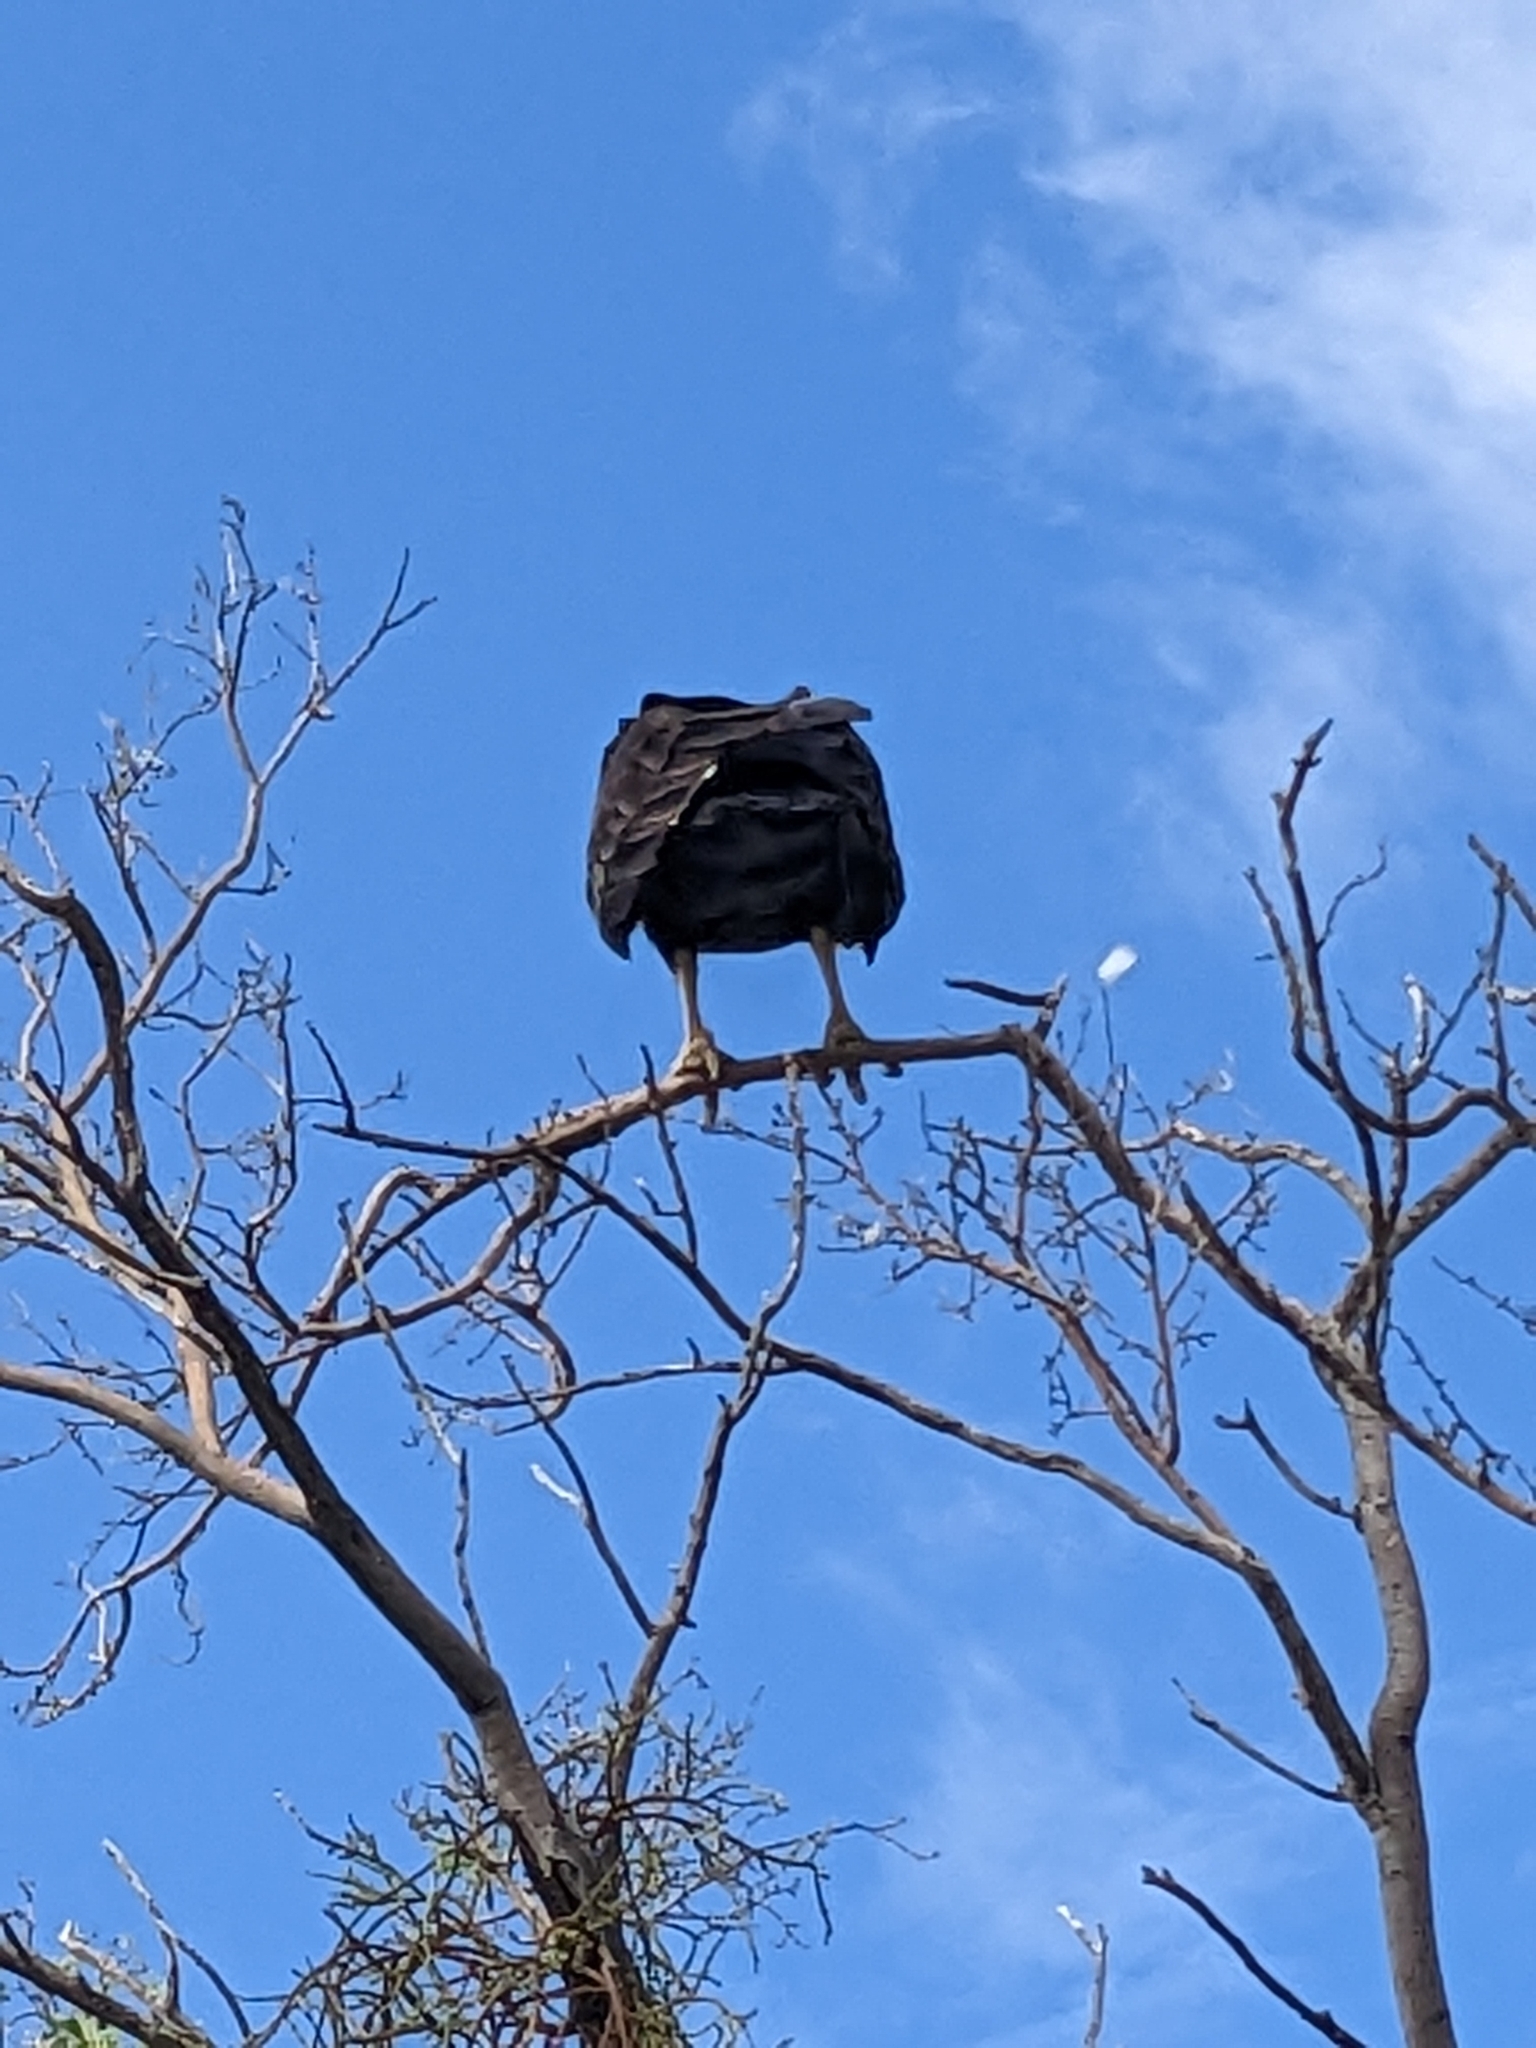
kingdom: Animalia
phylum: Chordata
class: Aves
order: Accipitriformes
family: Cathartidae
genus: Cathartes
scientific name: Cathartes aura
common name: Turkey vulture
